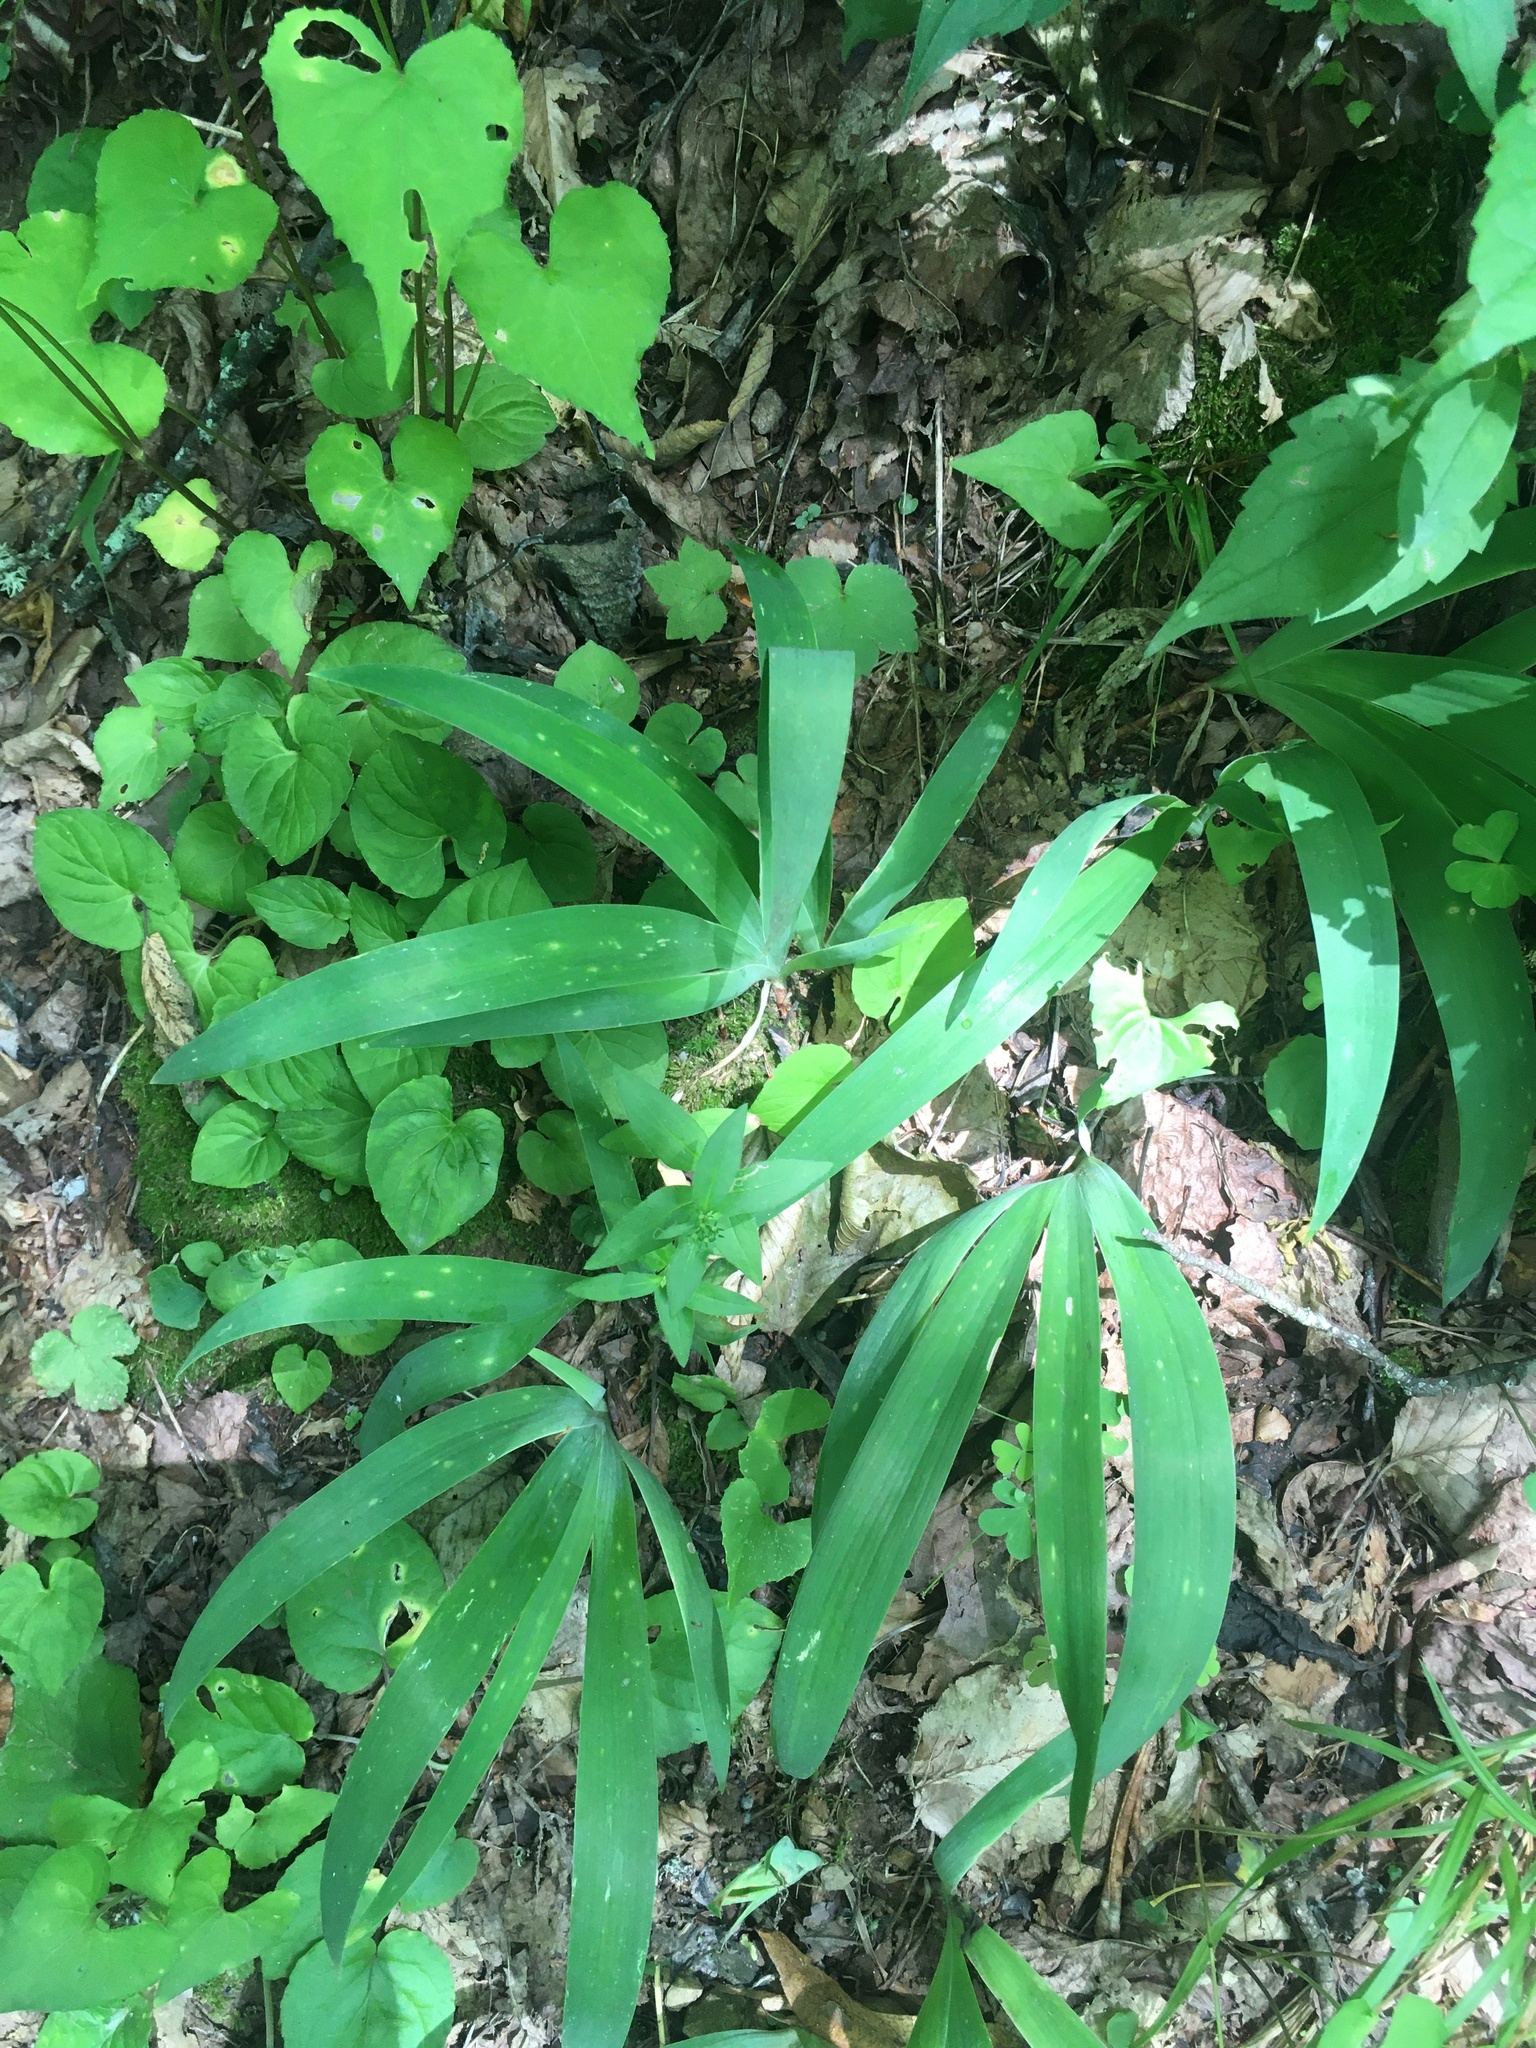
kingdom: Plantae
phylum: Tracheophyta
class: Liliopsida
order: Asparagales
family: Iridaceae
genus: Iris
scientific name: Iris cristata
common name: Crested iris
